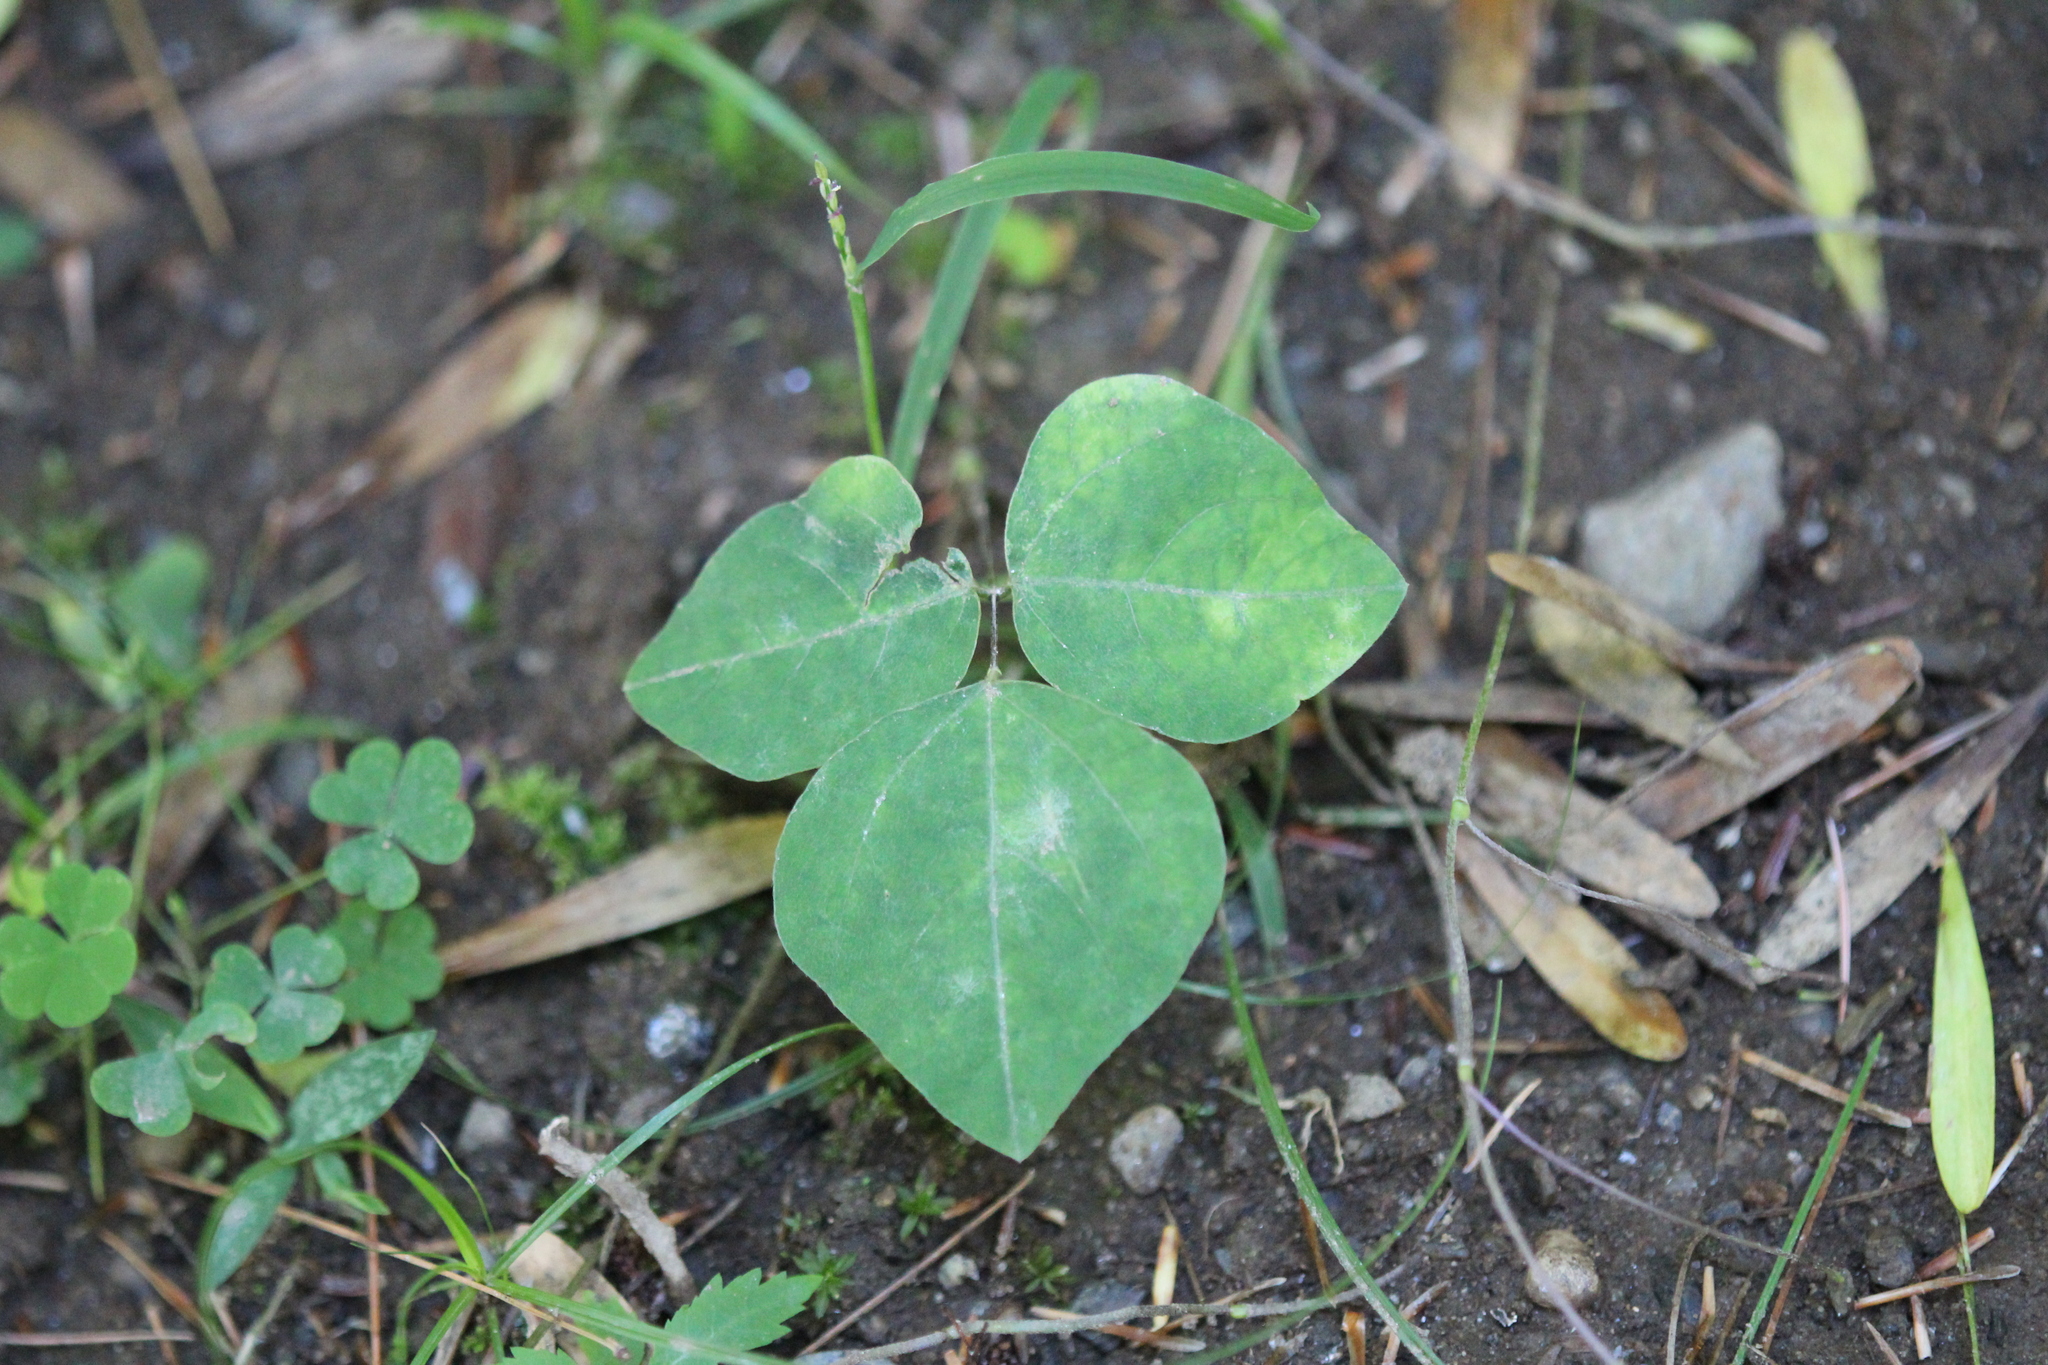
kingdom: Plantae
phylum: Tracheophyta
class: Magnoliopsida
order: Fabales
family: Fabaceae
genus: Amphicarpaea
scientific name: Amphicarpaea bracteata
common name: American hog peanut
